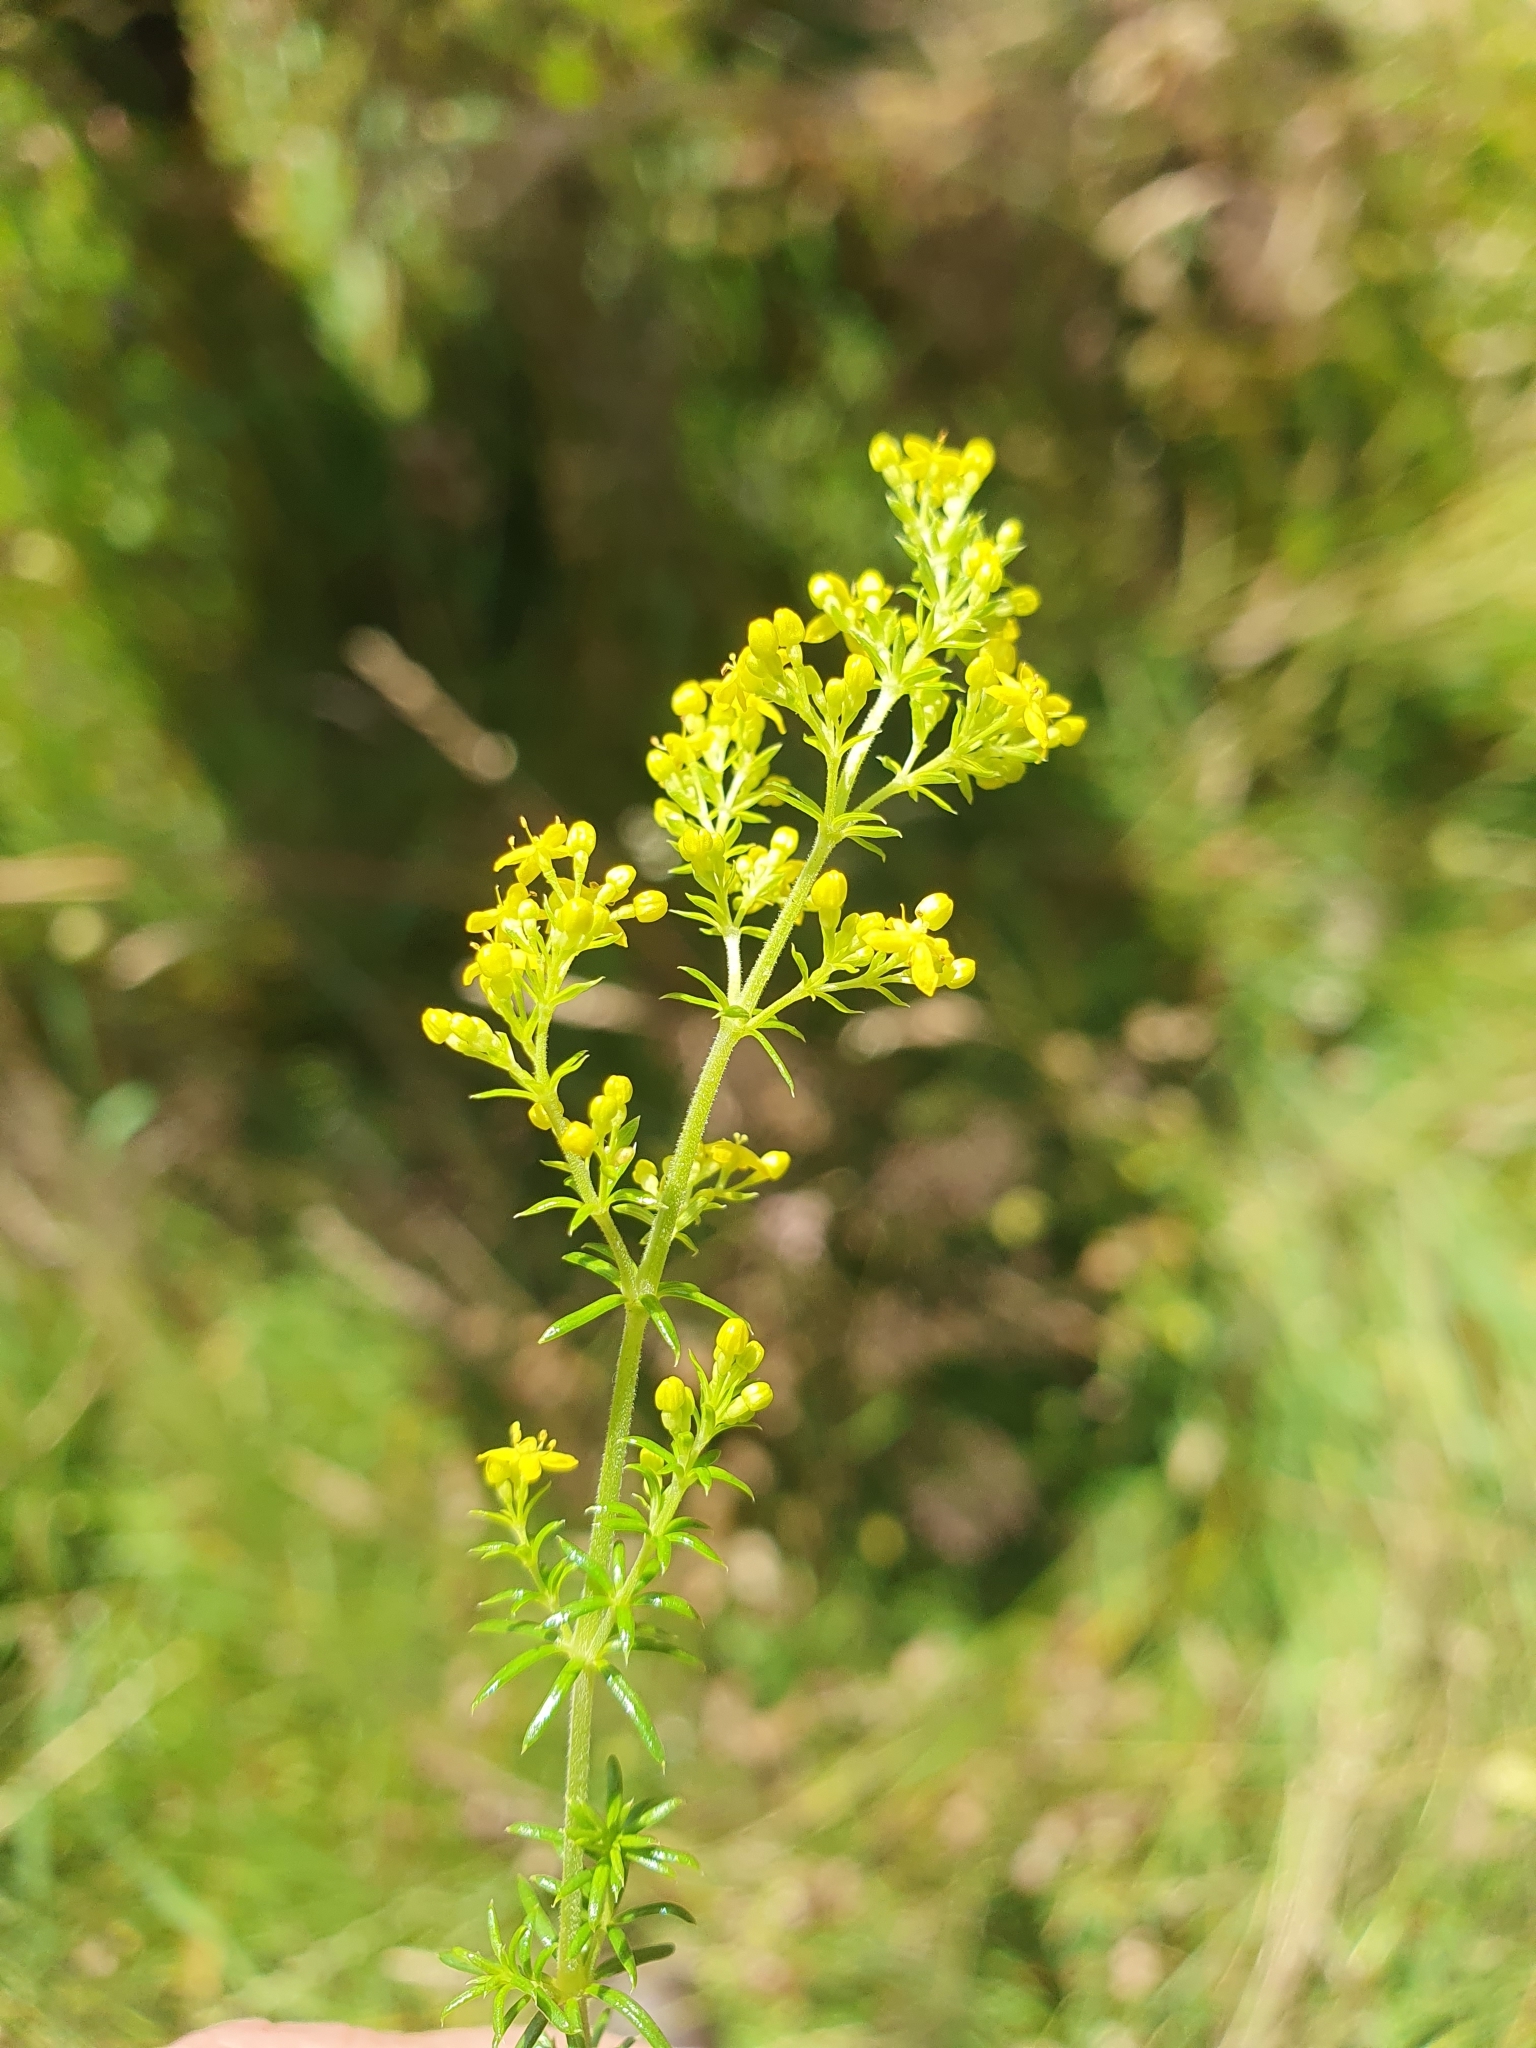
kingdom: Plantae
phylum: Tracheophyta
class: Magnoliopsida
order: Gentianales
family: Rubiaceae
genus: Galium
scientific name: Galium verum
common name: Lady's bedstraw
